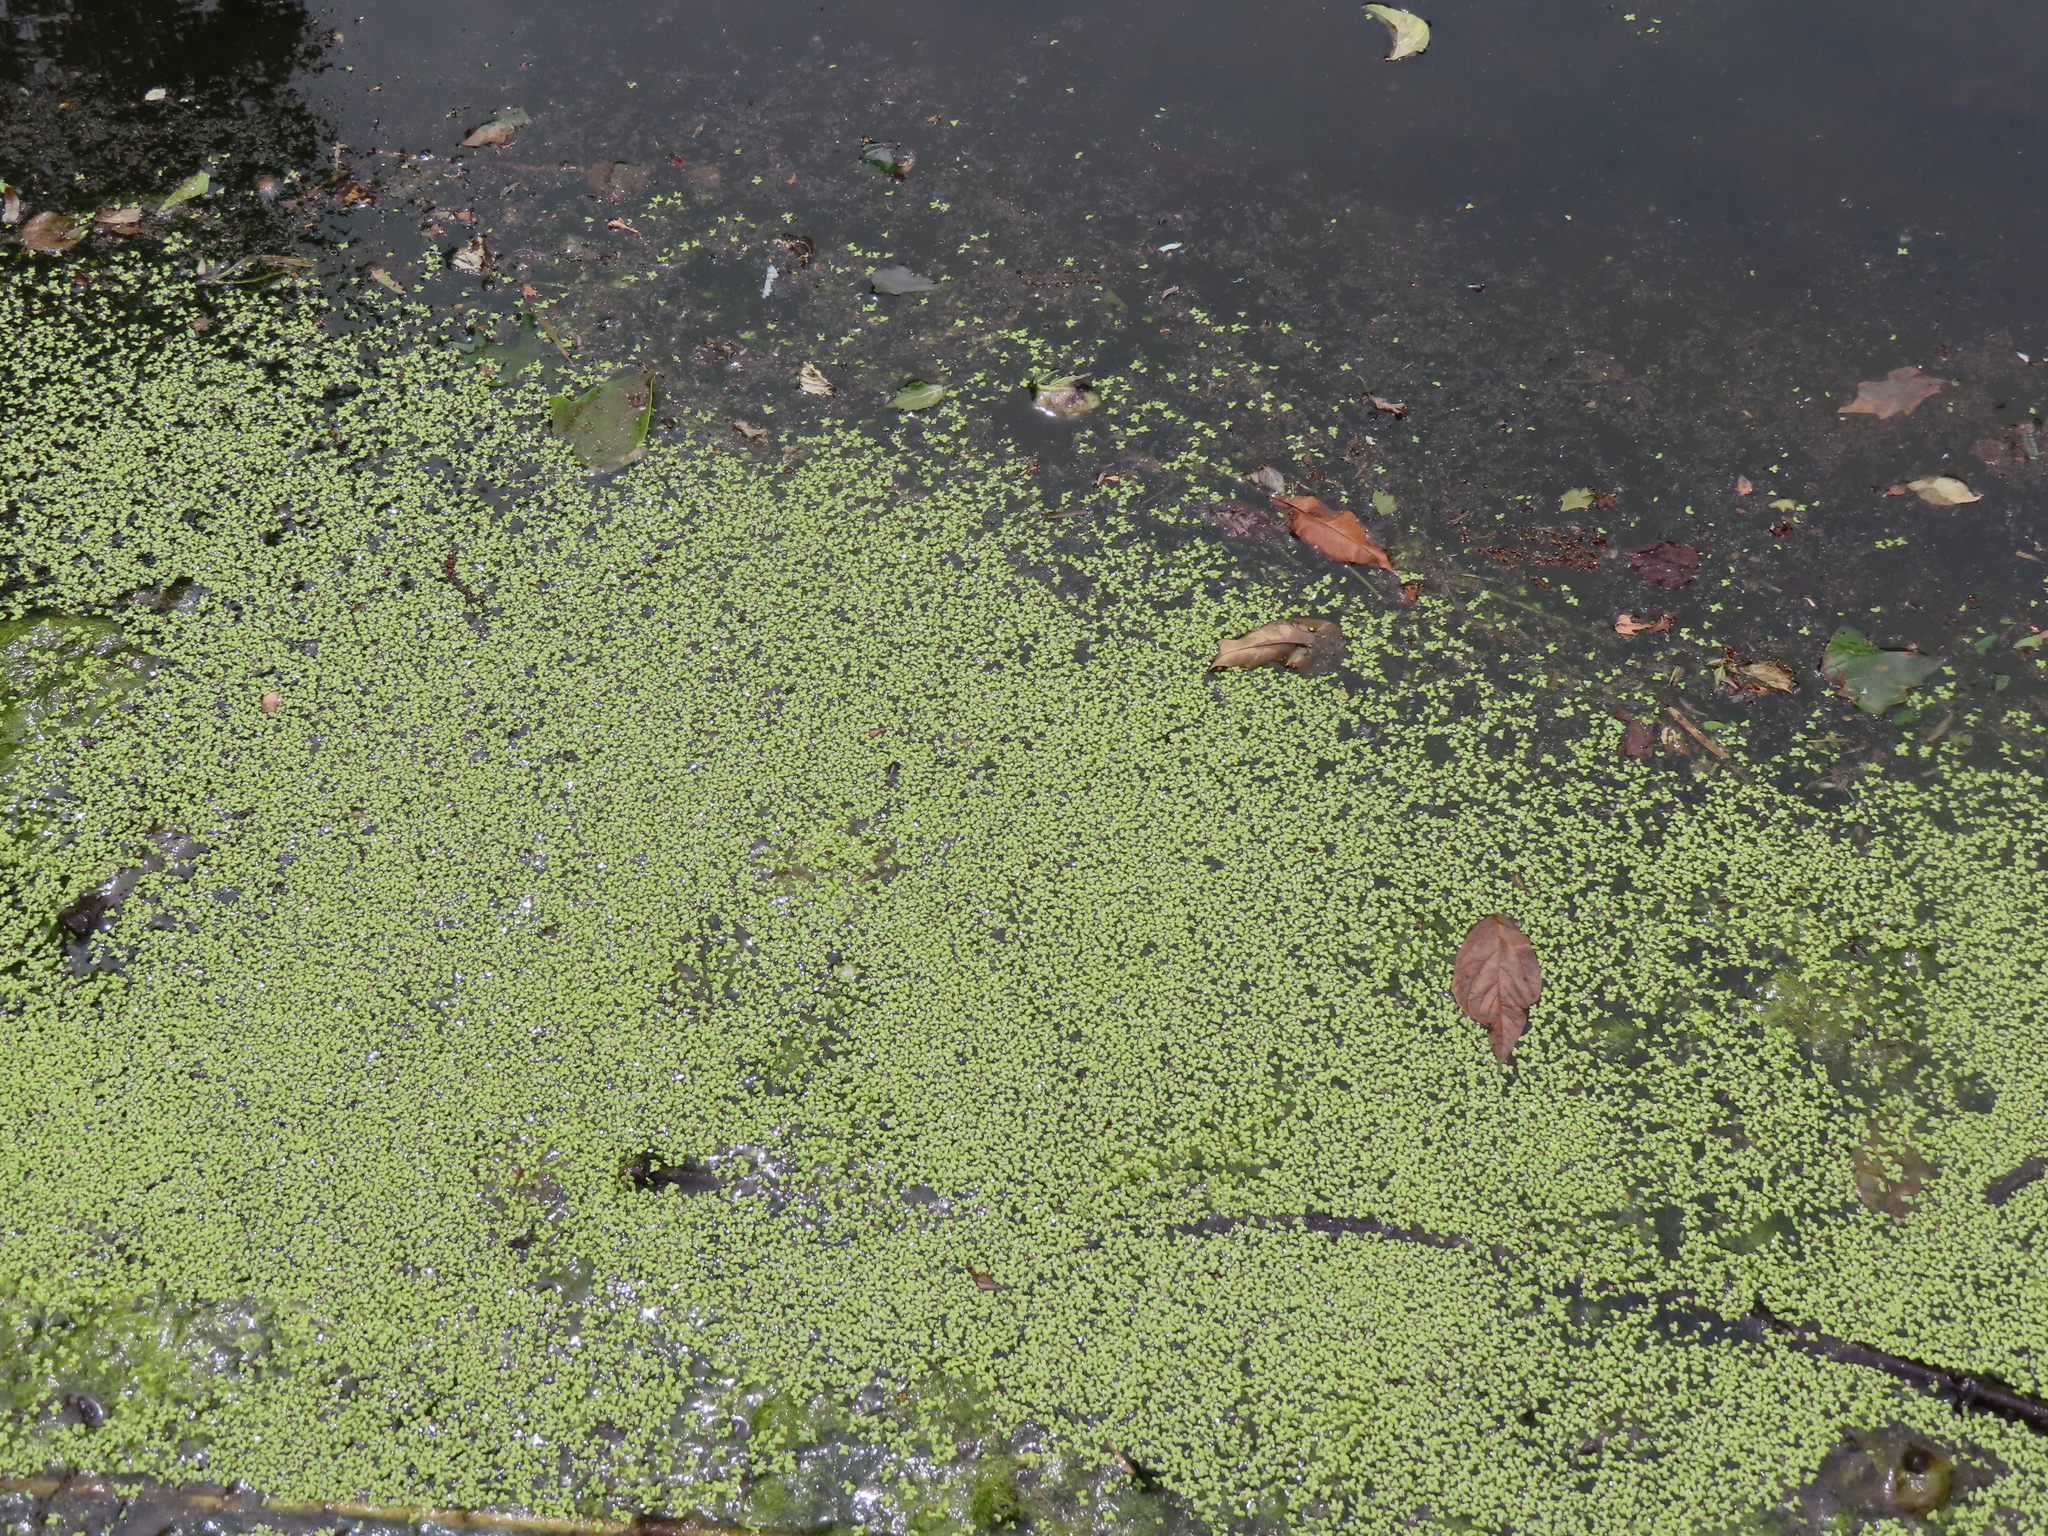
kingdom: Plantae
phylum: Tracheophyta
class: Liliopsida
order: Alismatales
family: Araceae
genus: Lemna
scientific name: Lemna minor
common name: Common duckweed
